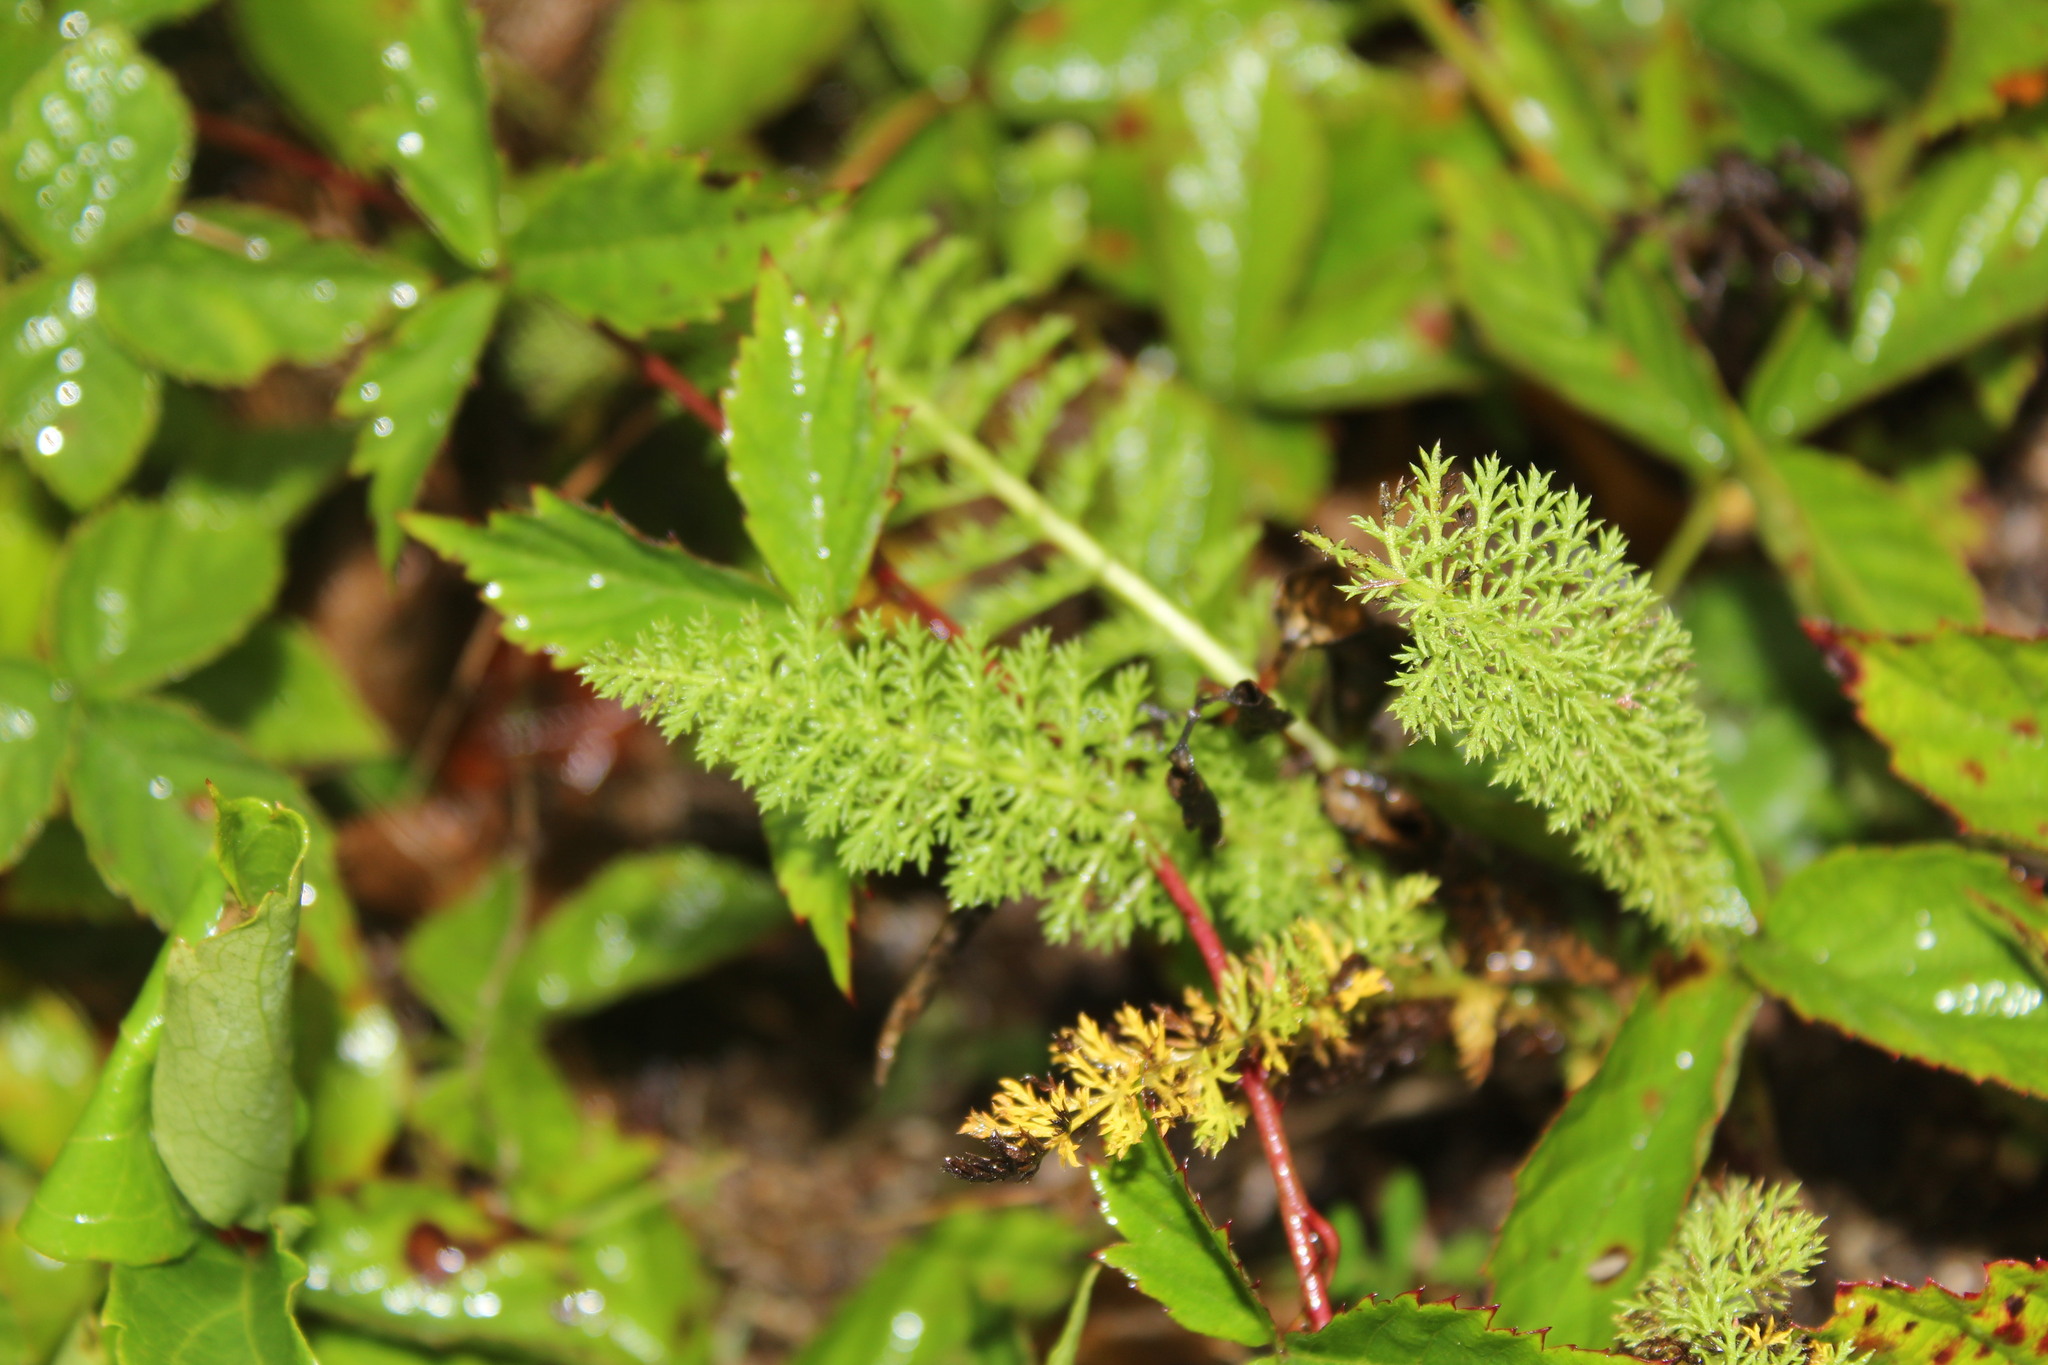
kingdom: Plantae
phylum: Tracheophyta
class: Magnoliopsida
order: Asterales
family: Asteraceae
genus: Achillea
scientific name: Achillea millefolium
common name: Yarrow
